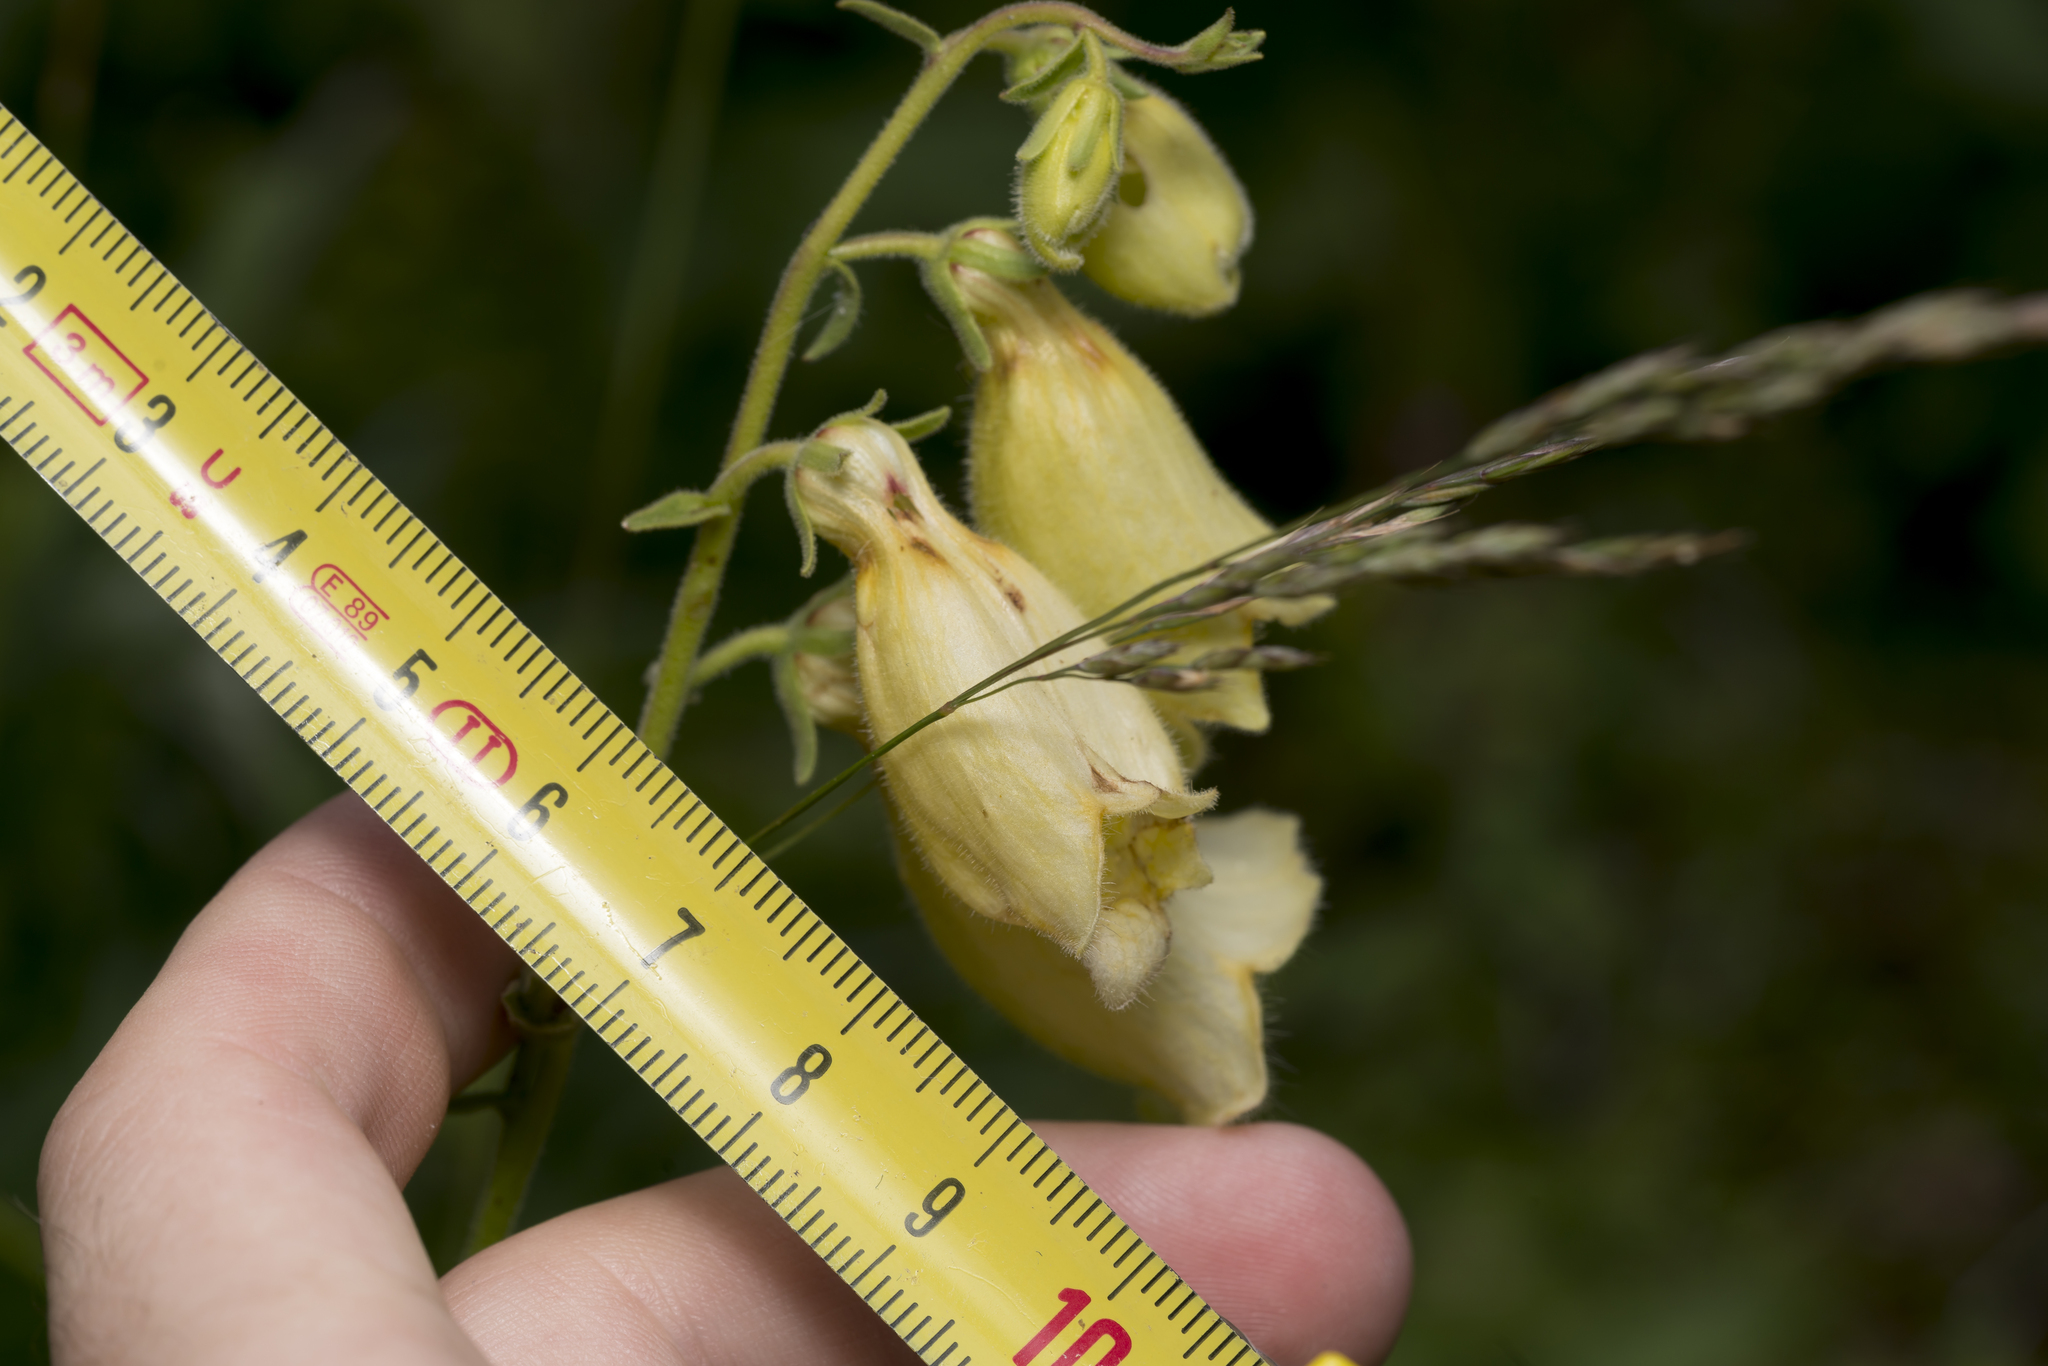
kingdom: Plantae
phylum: Tracheophyta
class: Magnoliopsida
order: Lamiales
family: Plantaginaceae
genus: Digitalis
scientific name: Digitalis grandiflora
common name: Yellow foxglove
